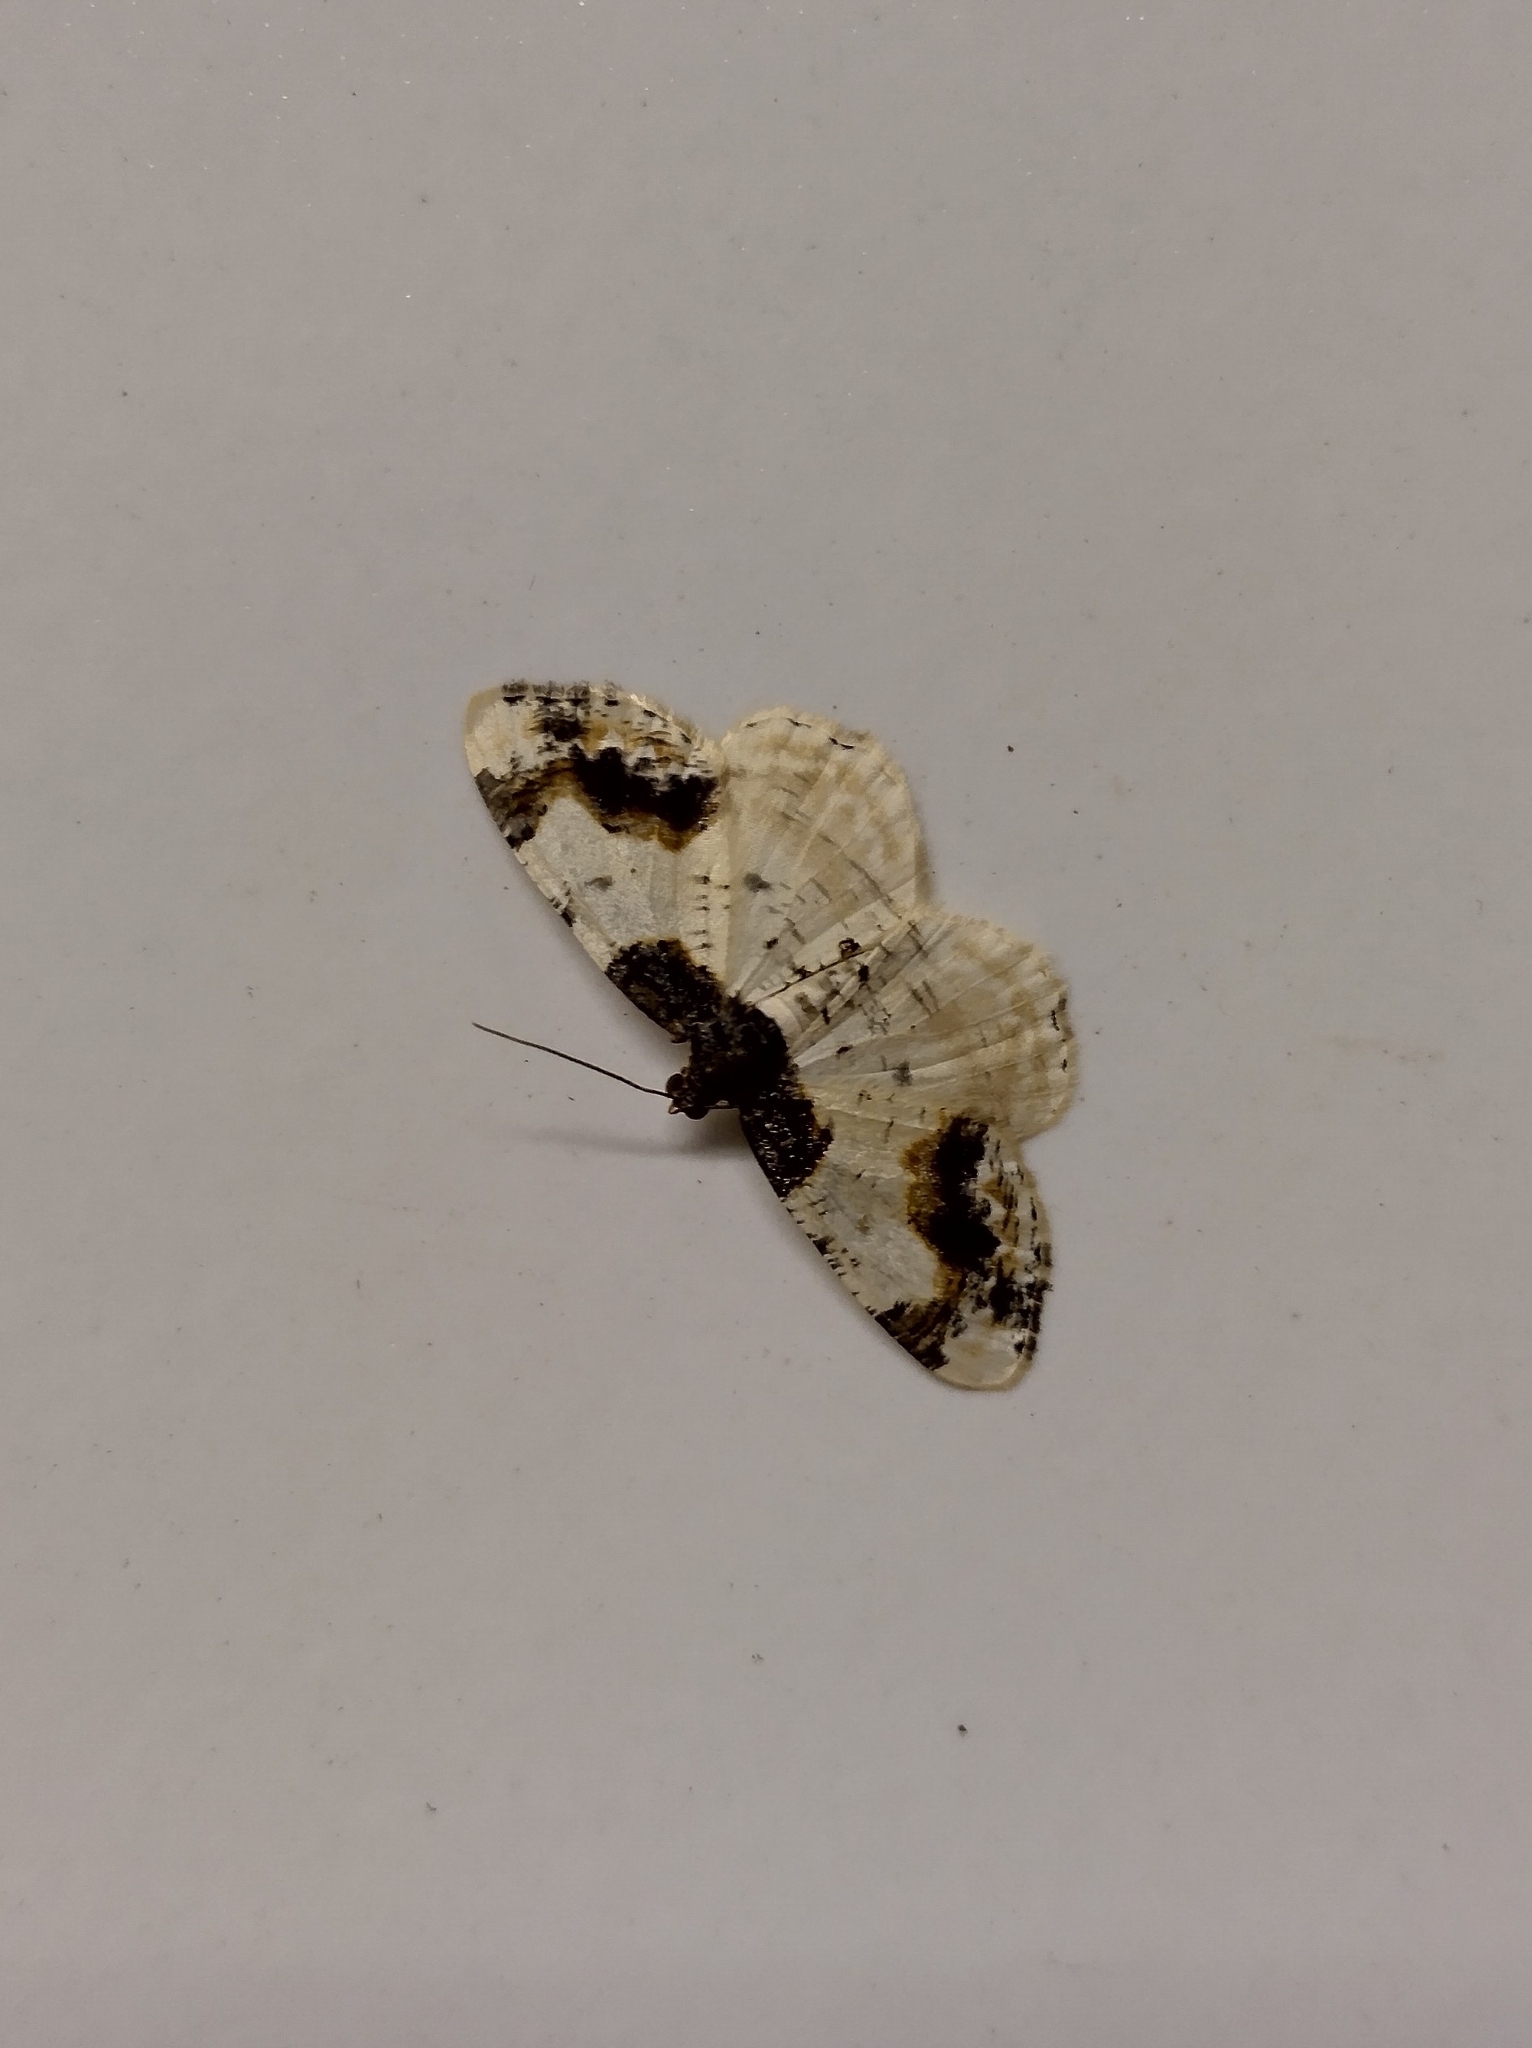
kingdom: Animalia
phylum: Arthropoda
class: Insecta
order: Lepidoptera
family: Geometridae
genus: Ligdia
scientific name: Ligdia adustata
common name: Scorched carpet
